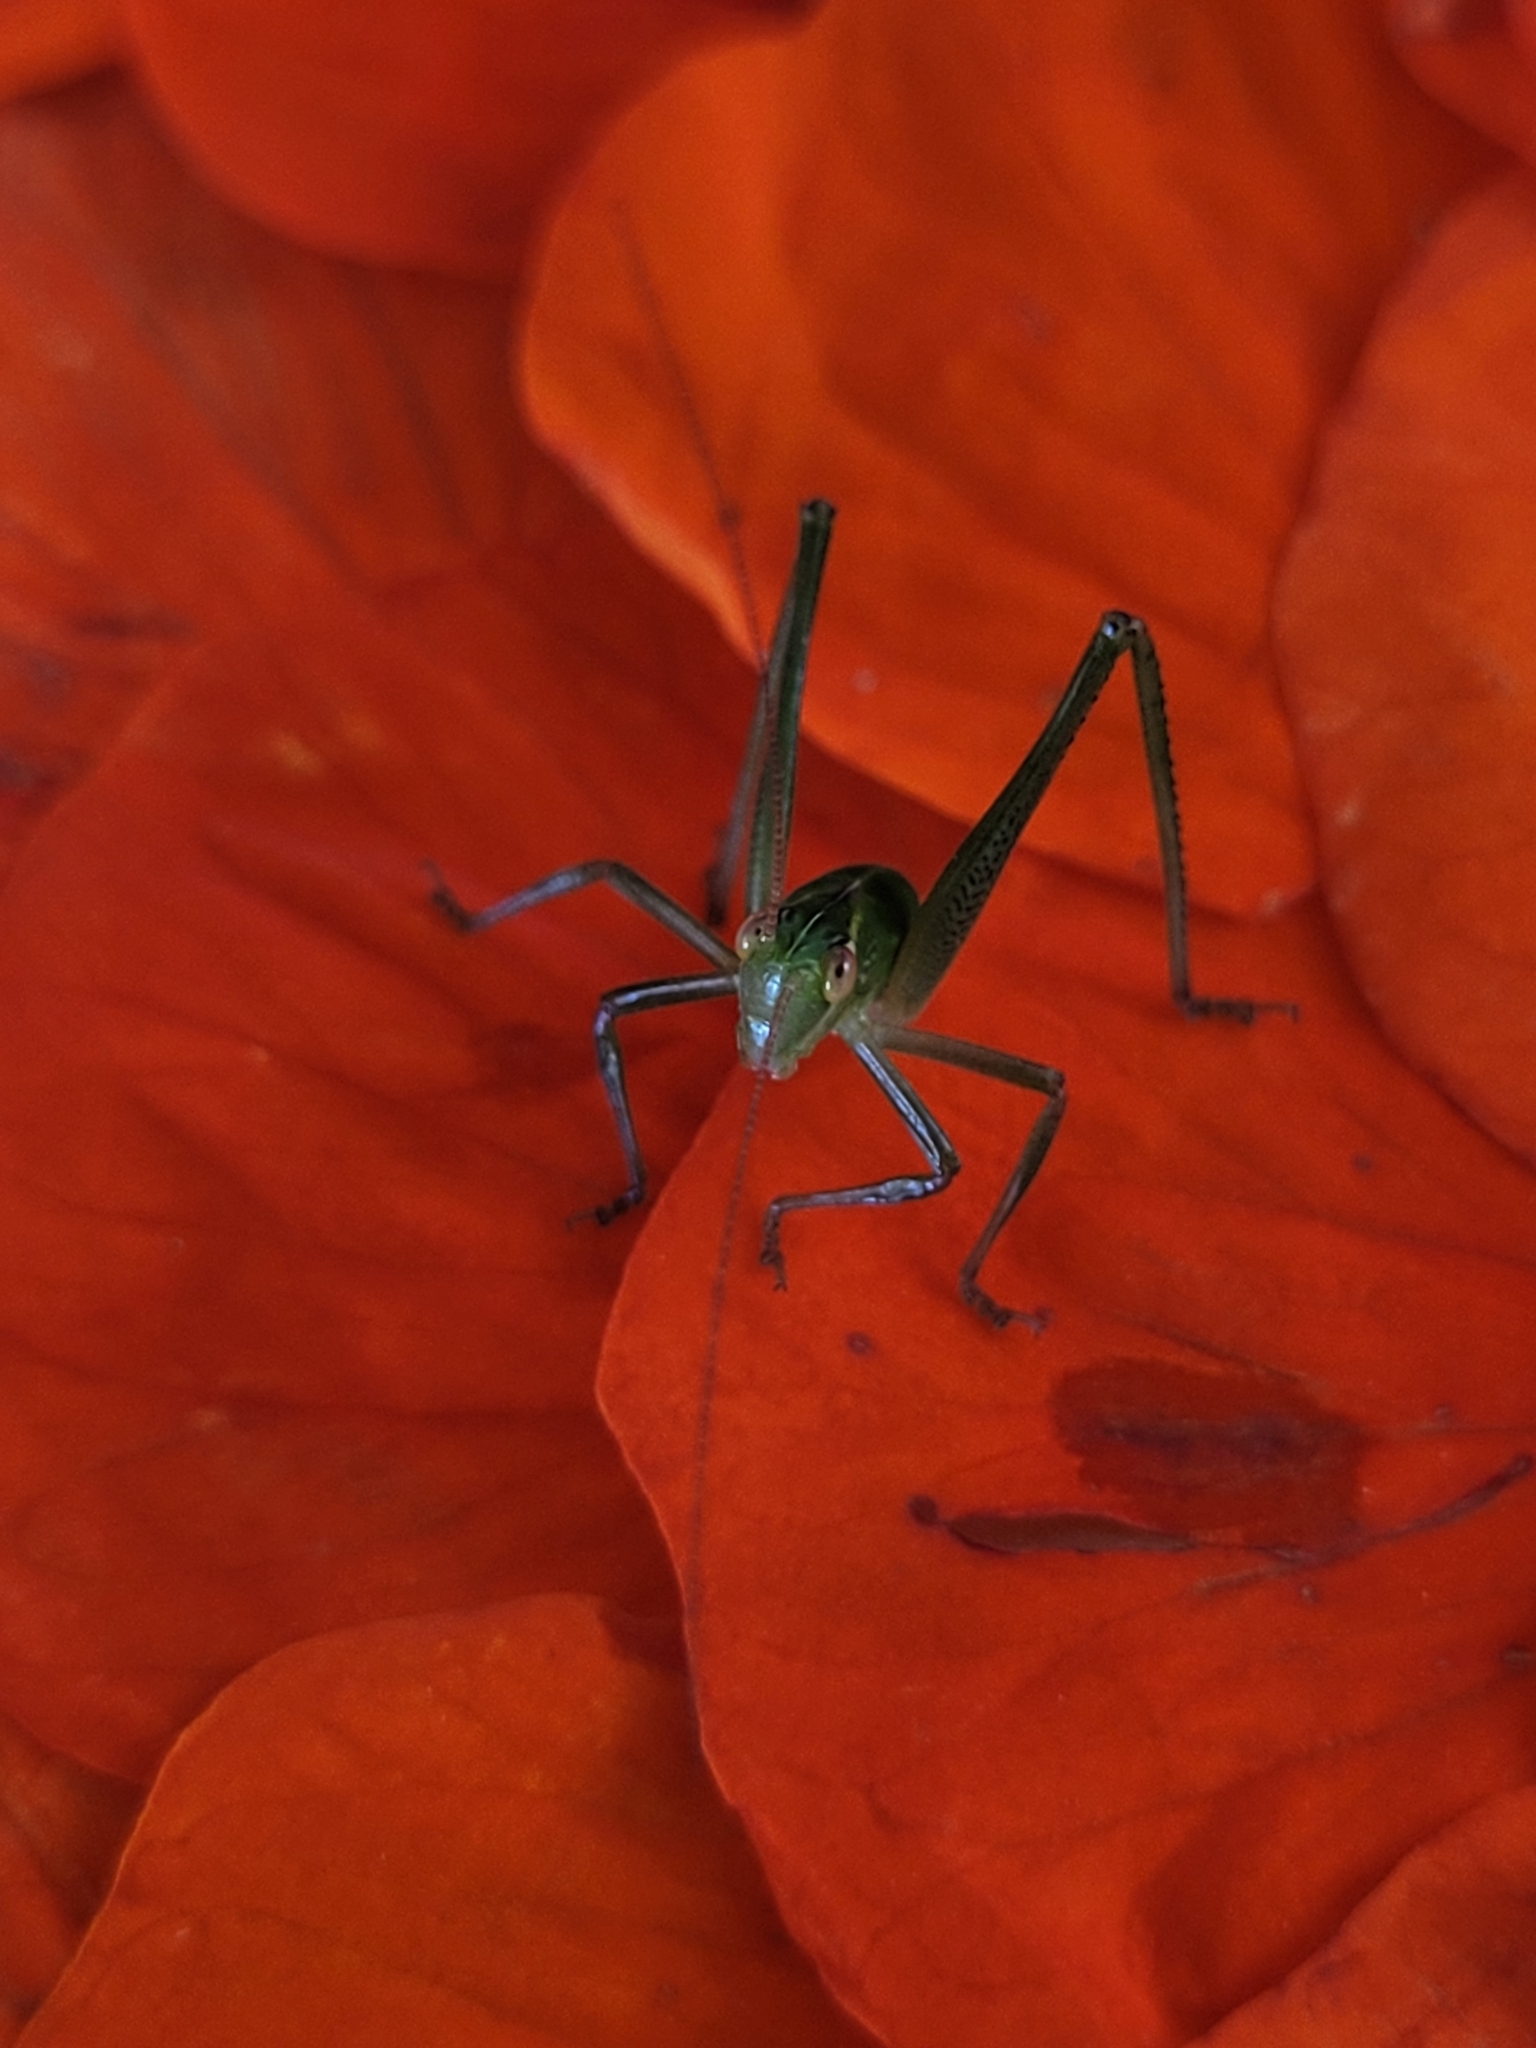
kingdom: Animalia
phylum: Arthropoda
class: Insecta
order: Orthoptera
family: Tettigoniidae
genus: Caedicia
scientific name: Caedicia simplex
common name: Common garden katydid
